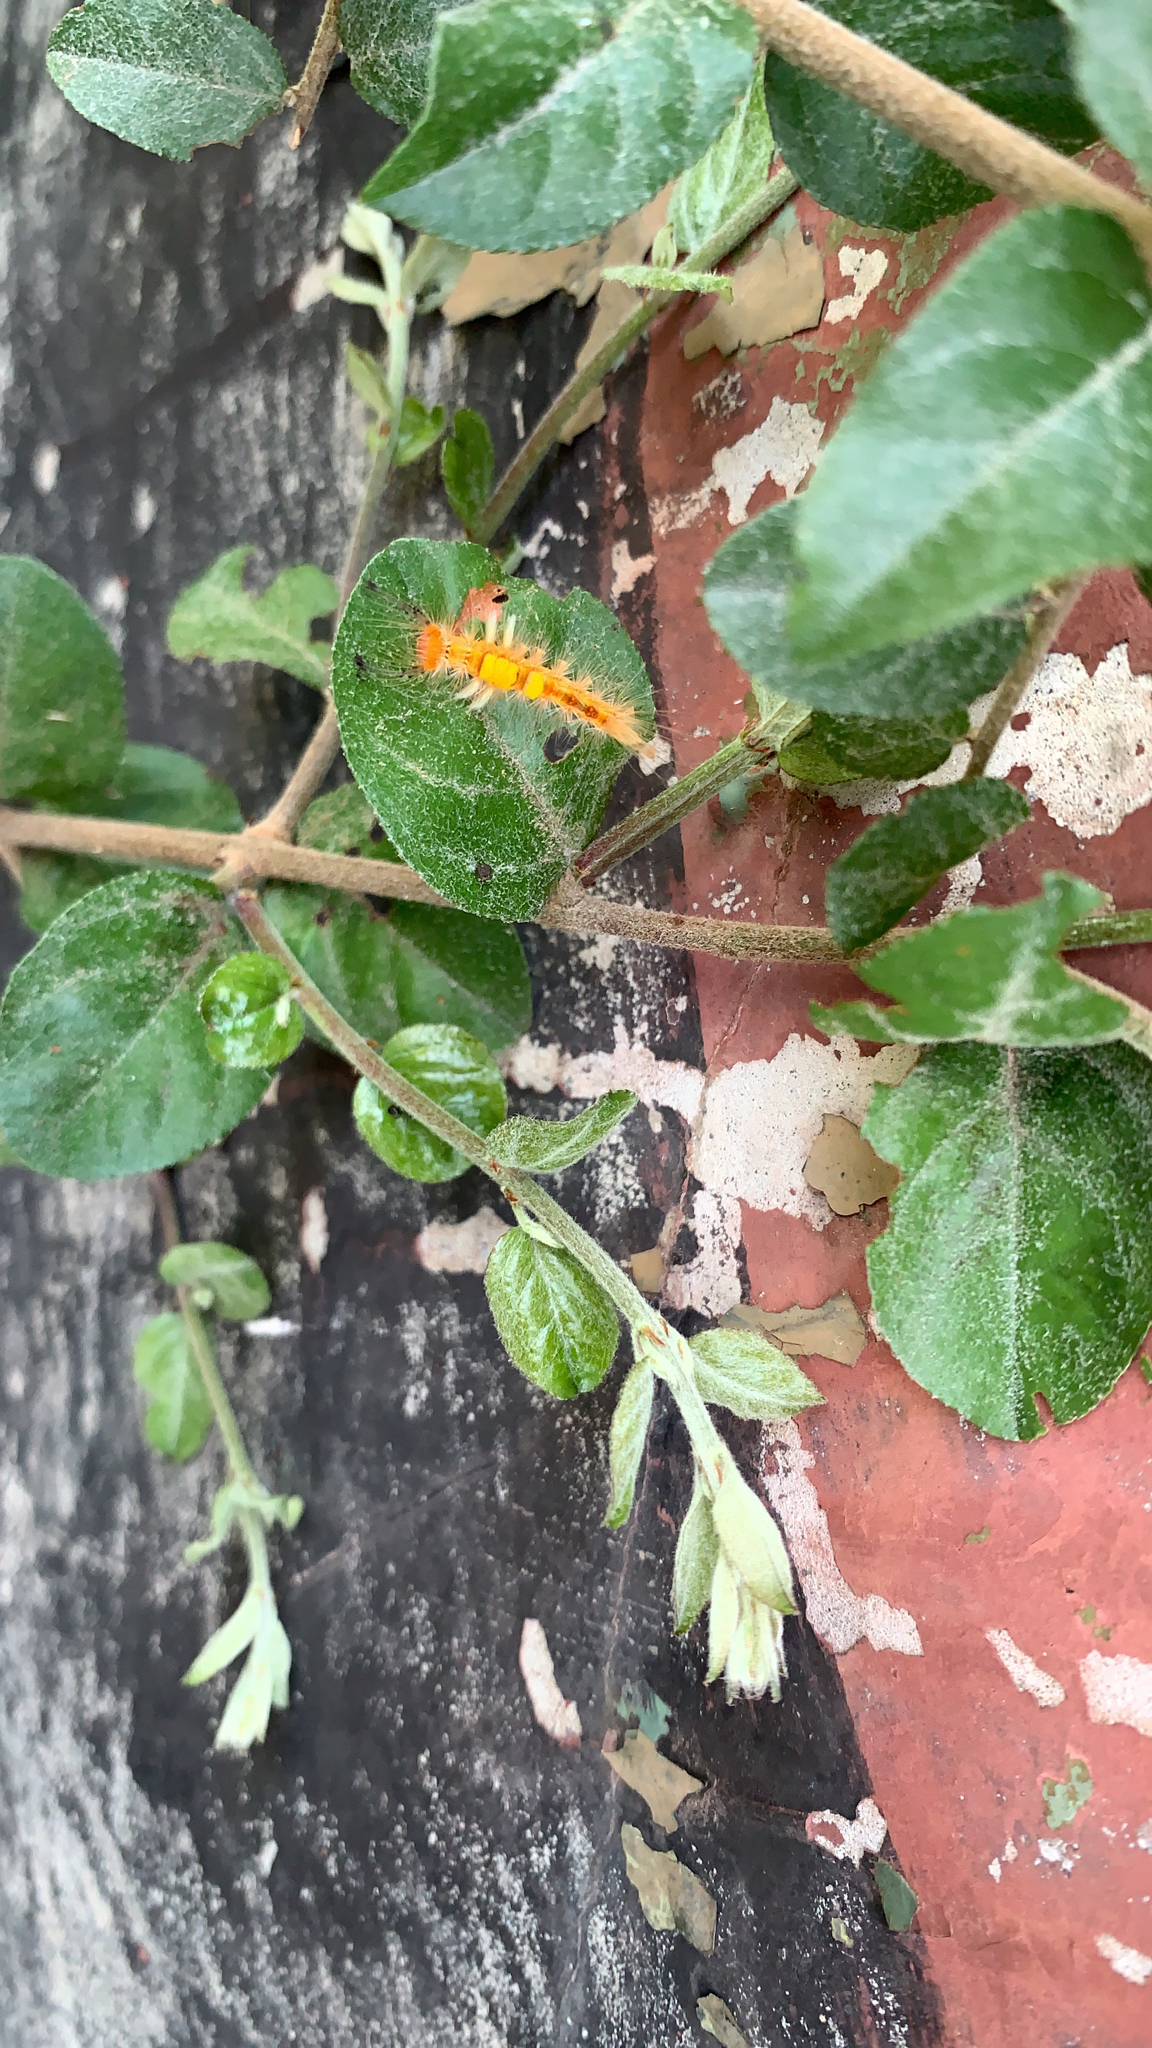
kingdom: Animalia
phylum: Arthropoda
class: Insecta
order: Lepidoptera
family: Erebidae
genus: Orgyia
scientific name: Orgyia postica
